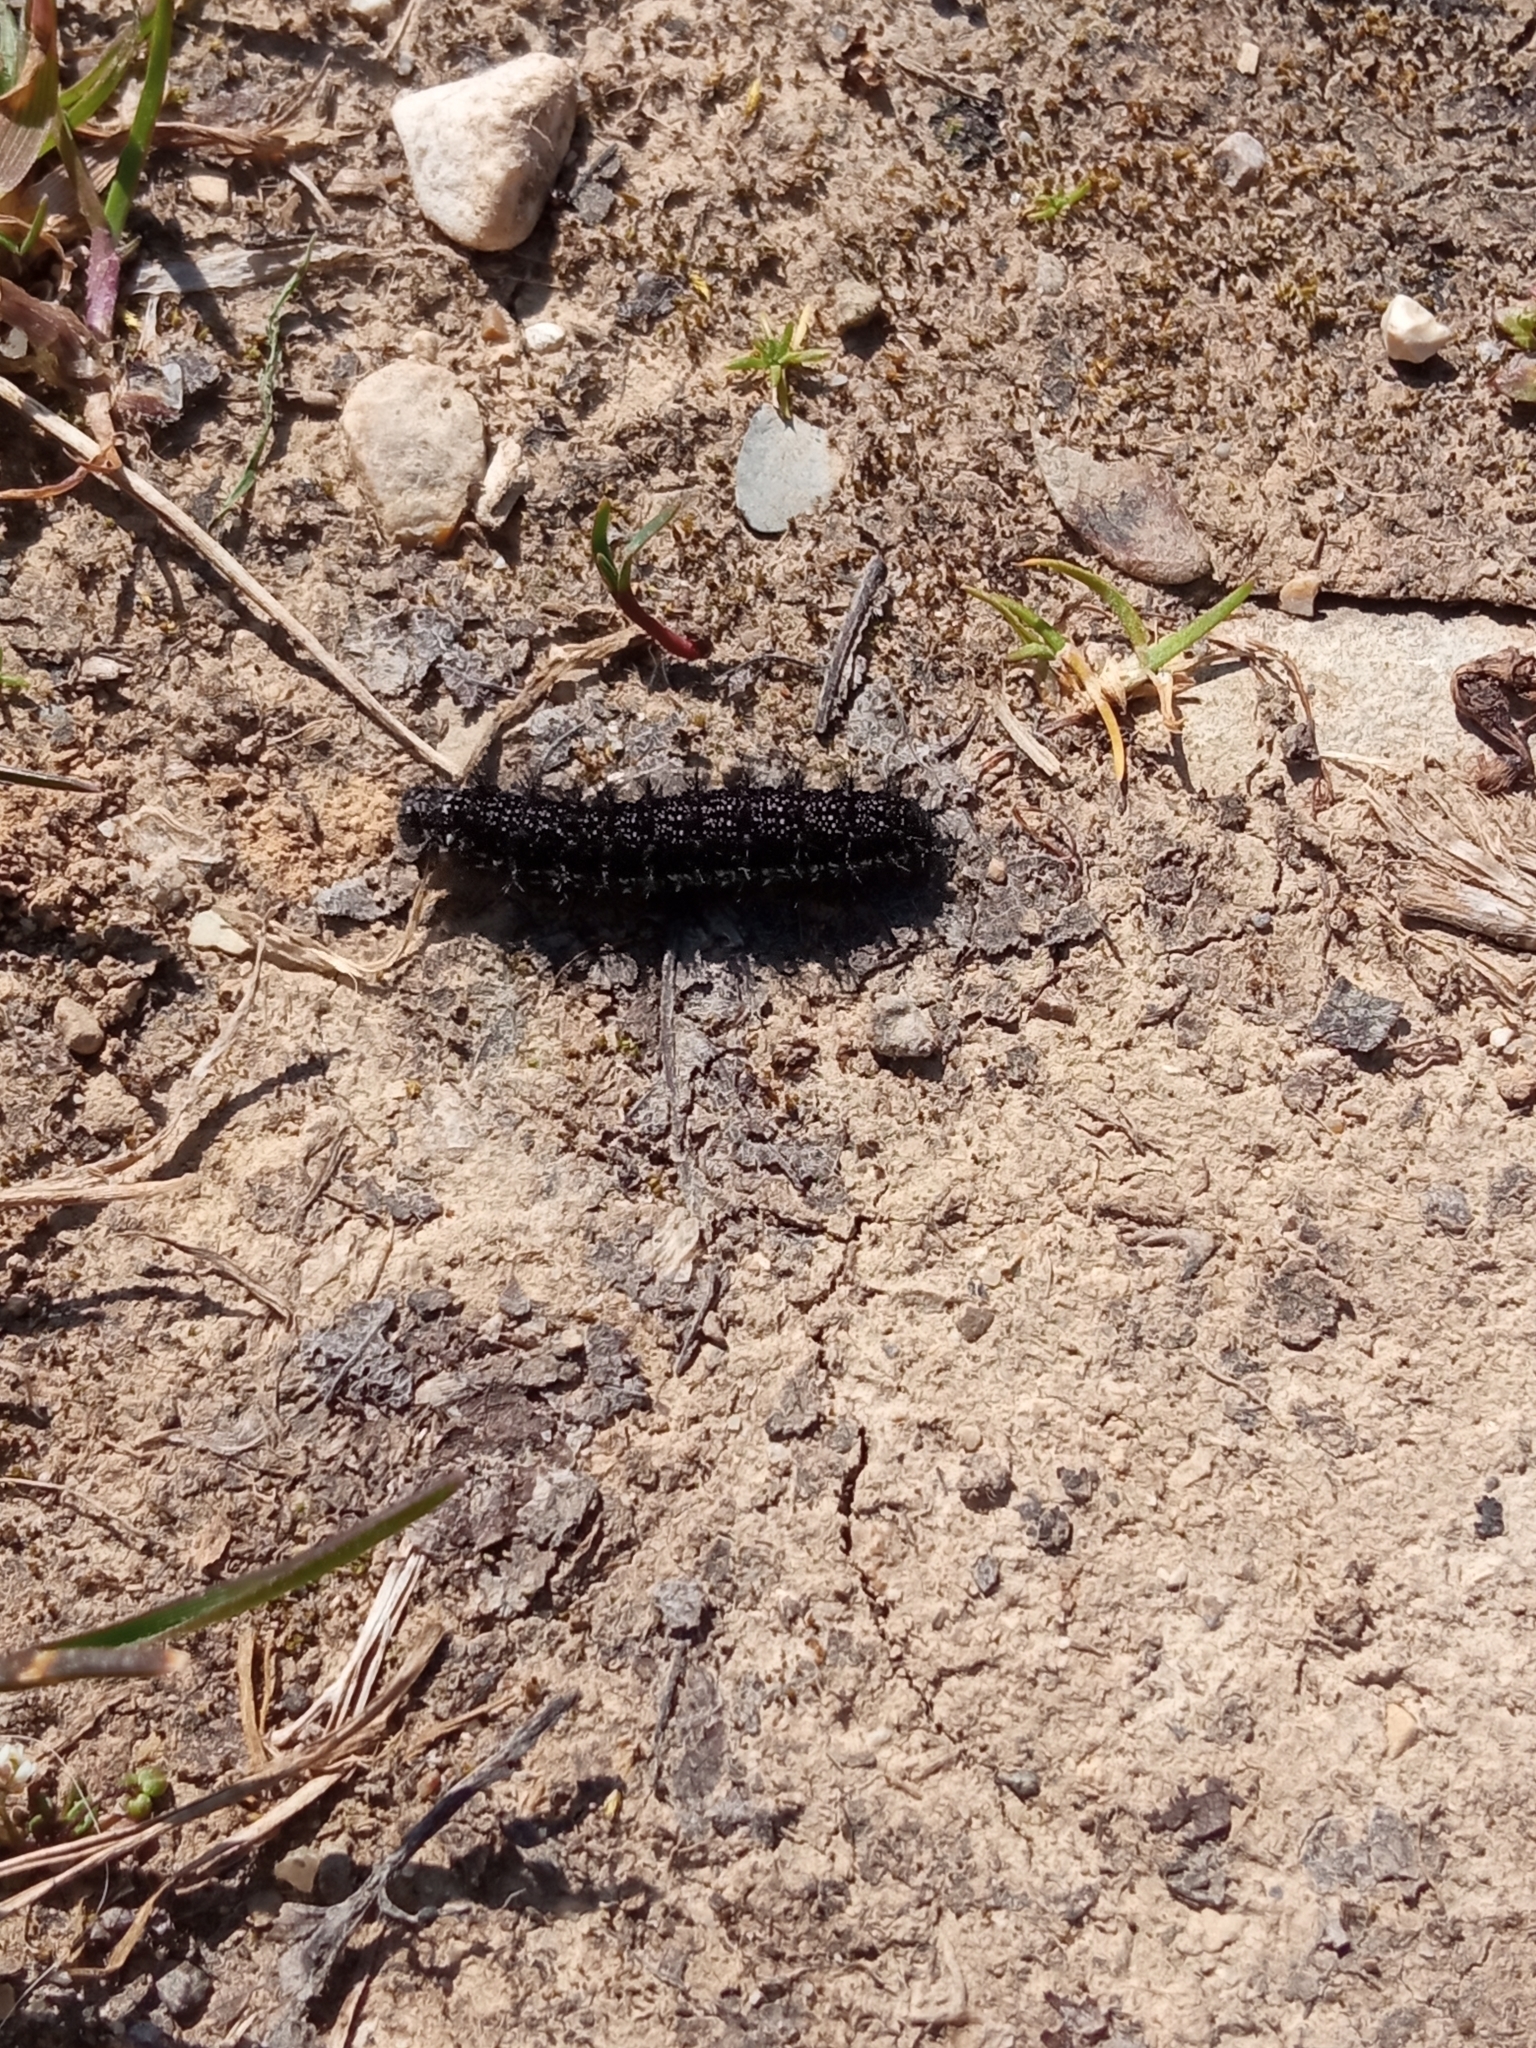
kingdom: Animalia
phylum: Arthropoda
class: Insecta
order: Lepidoptera
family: Nymphalidae
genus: Euphydryas
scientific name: Euphydryas aurinia
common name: Marsh fritillary
